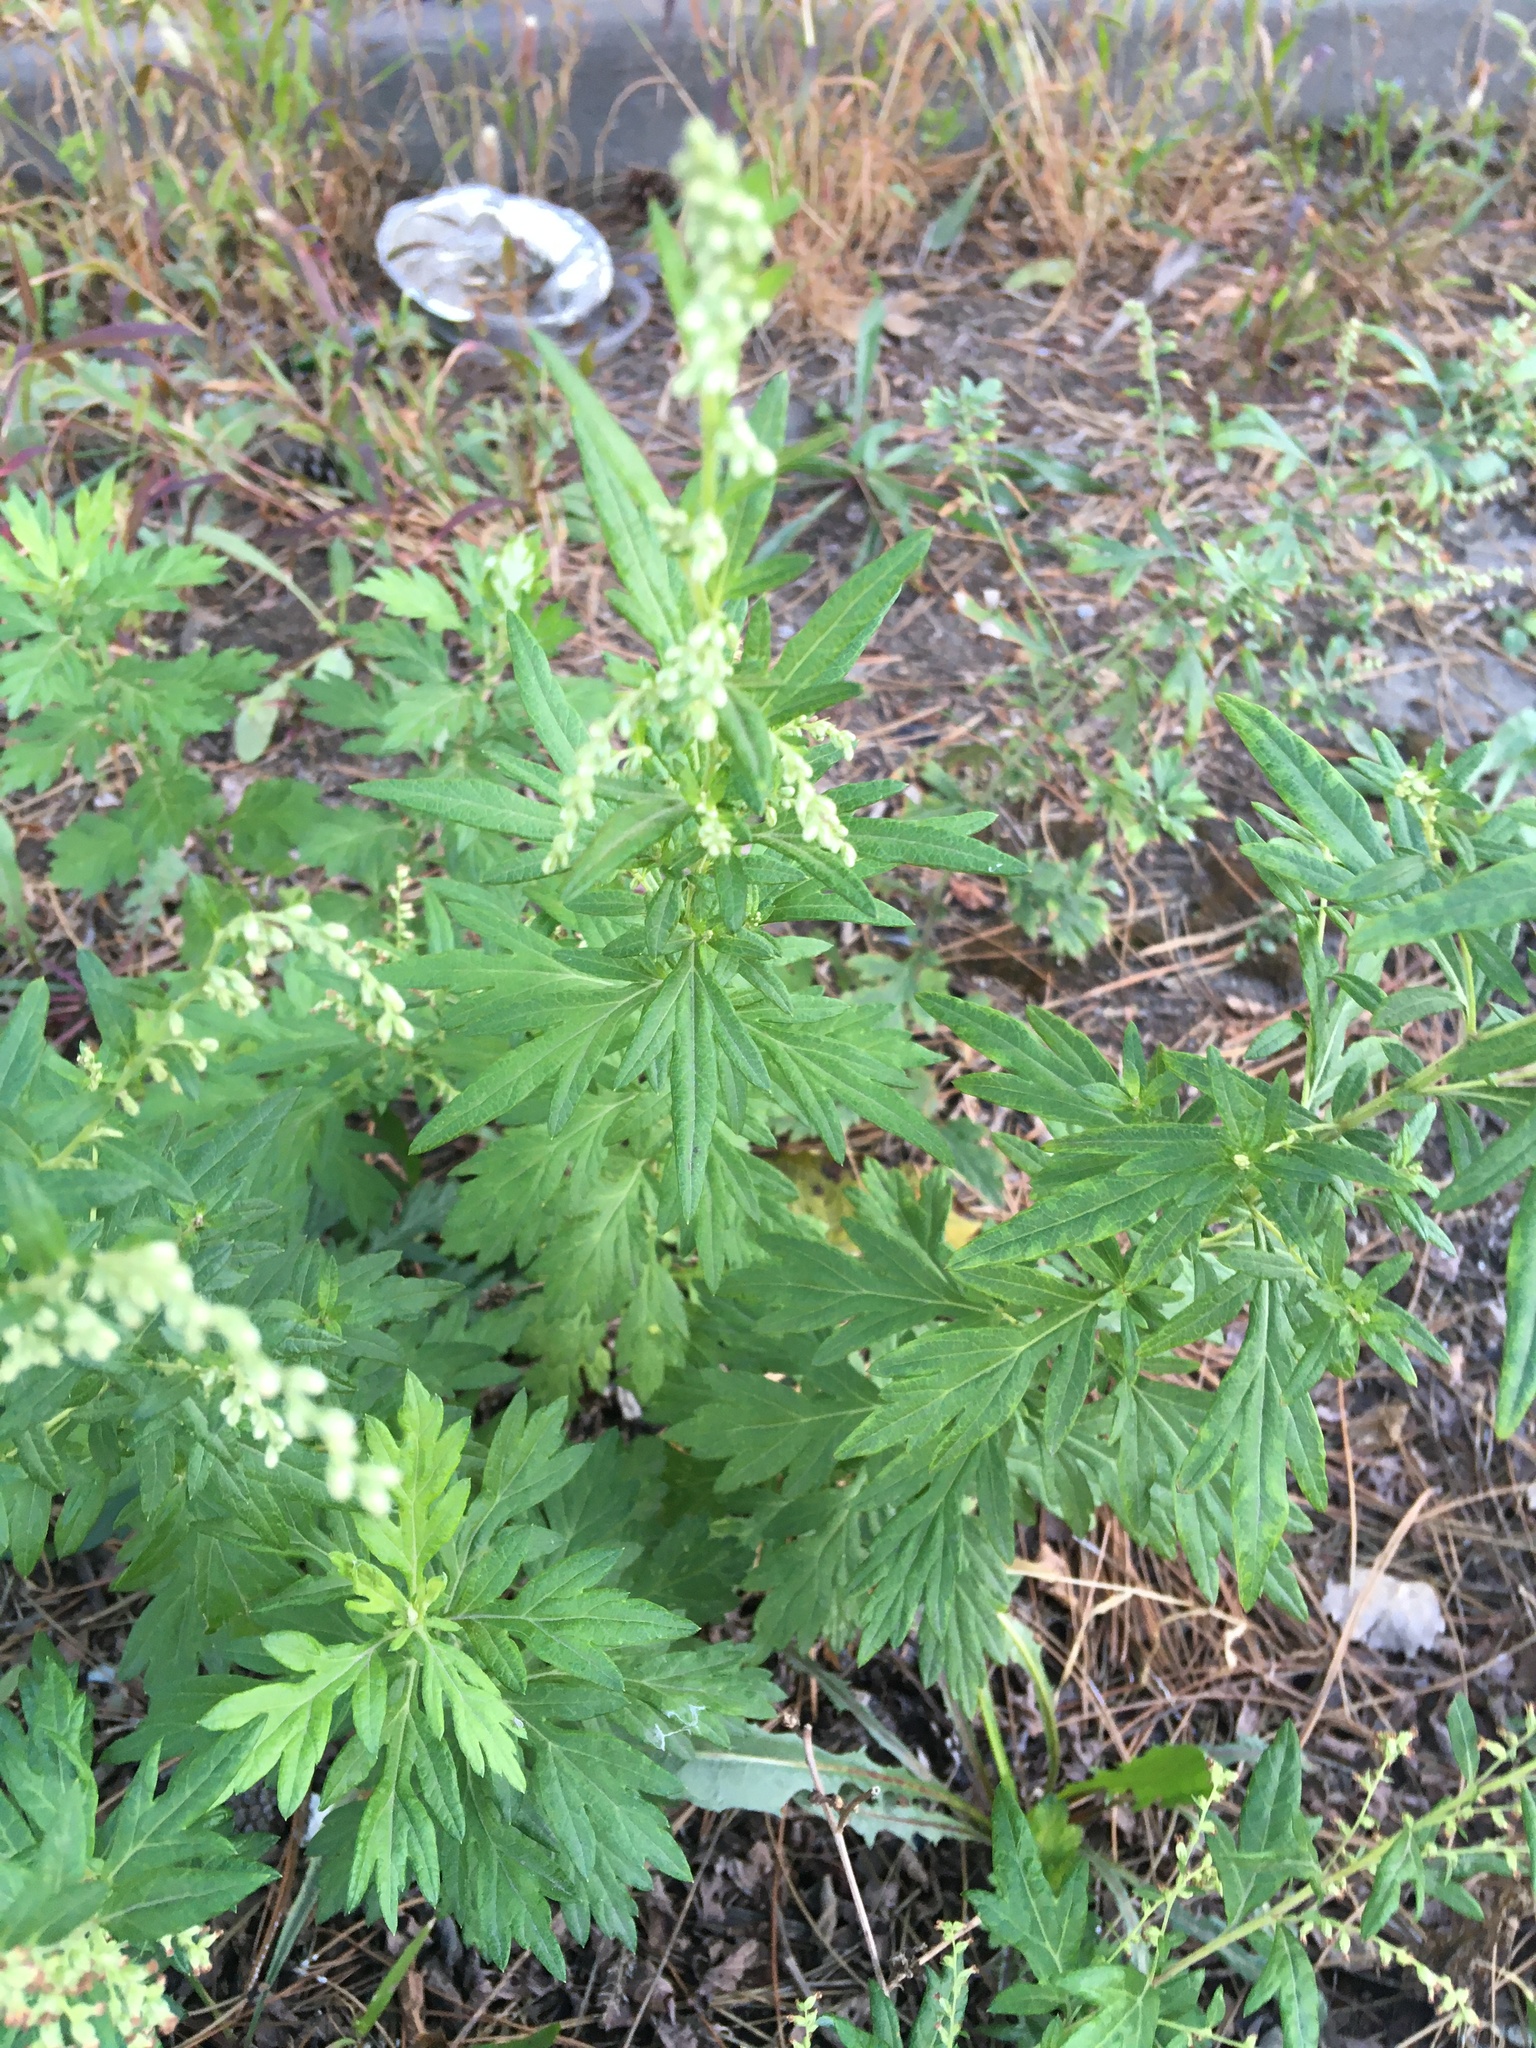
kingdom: Plantae
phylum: Tracheophyta
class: Magnoliopsida
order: Asterales
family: Asteraceae
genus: Artemisia
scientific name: Artemisia vulgaris
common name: Mugwort
